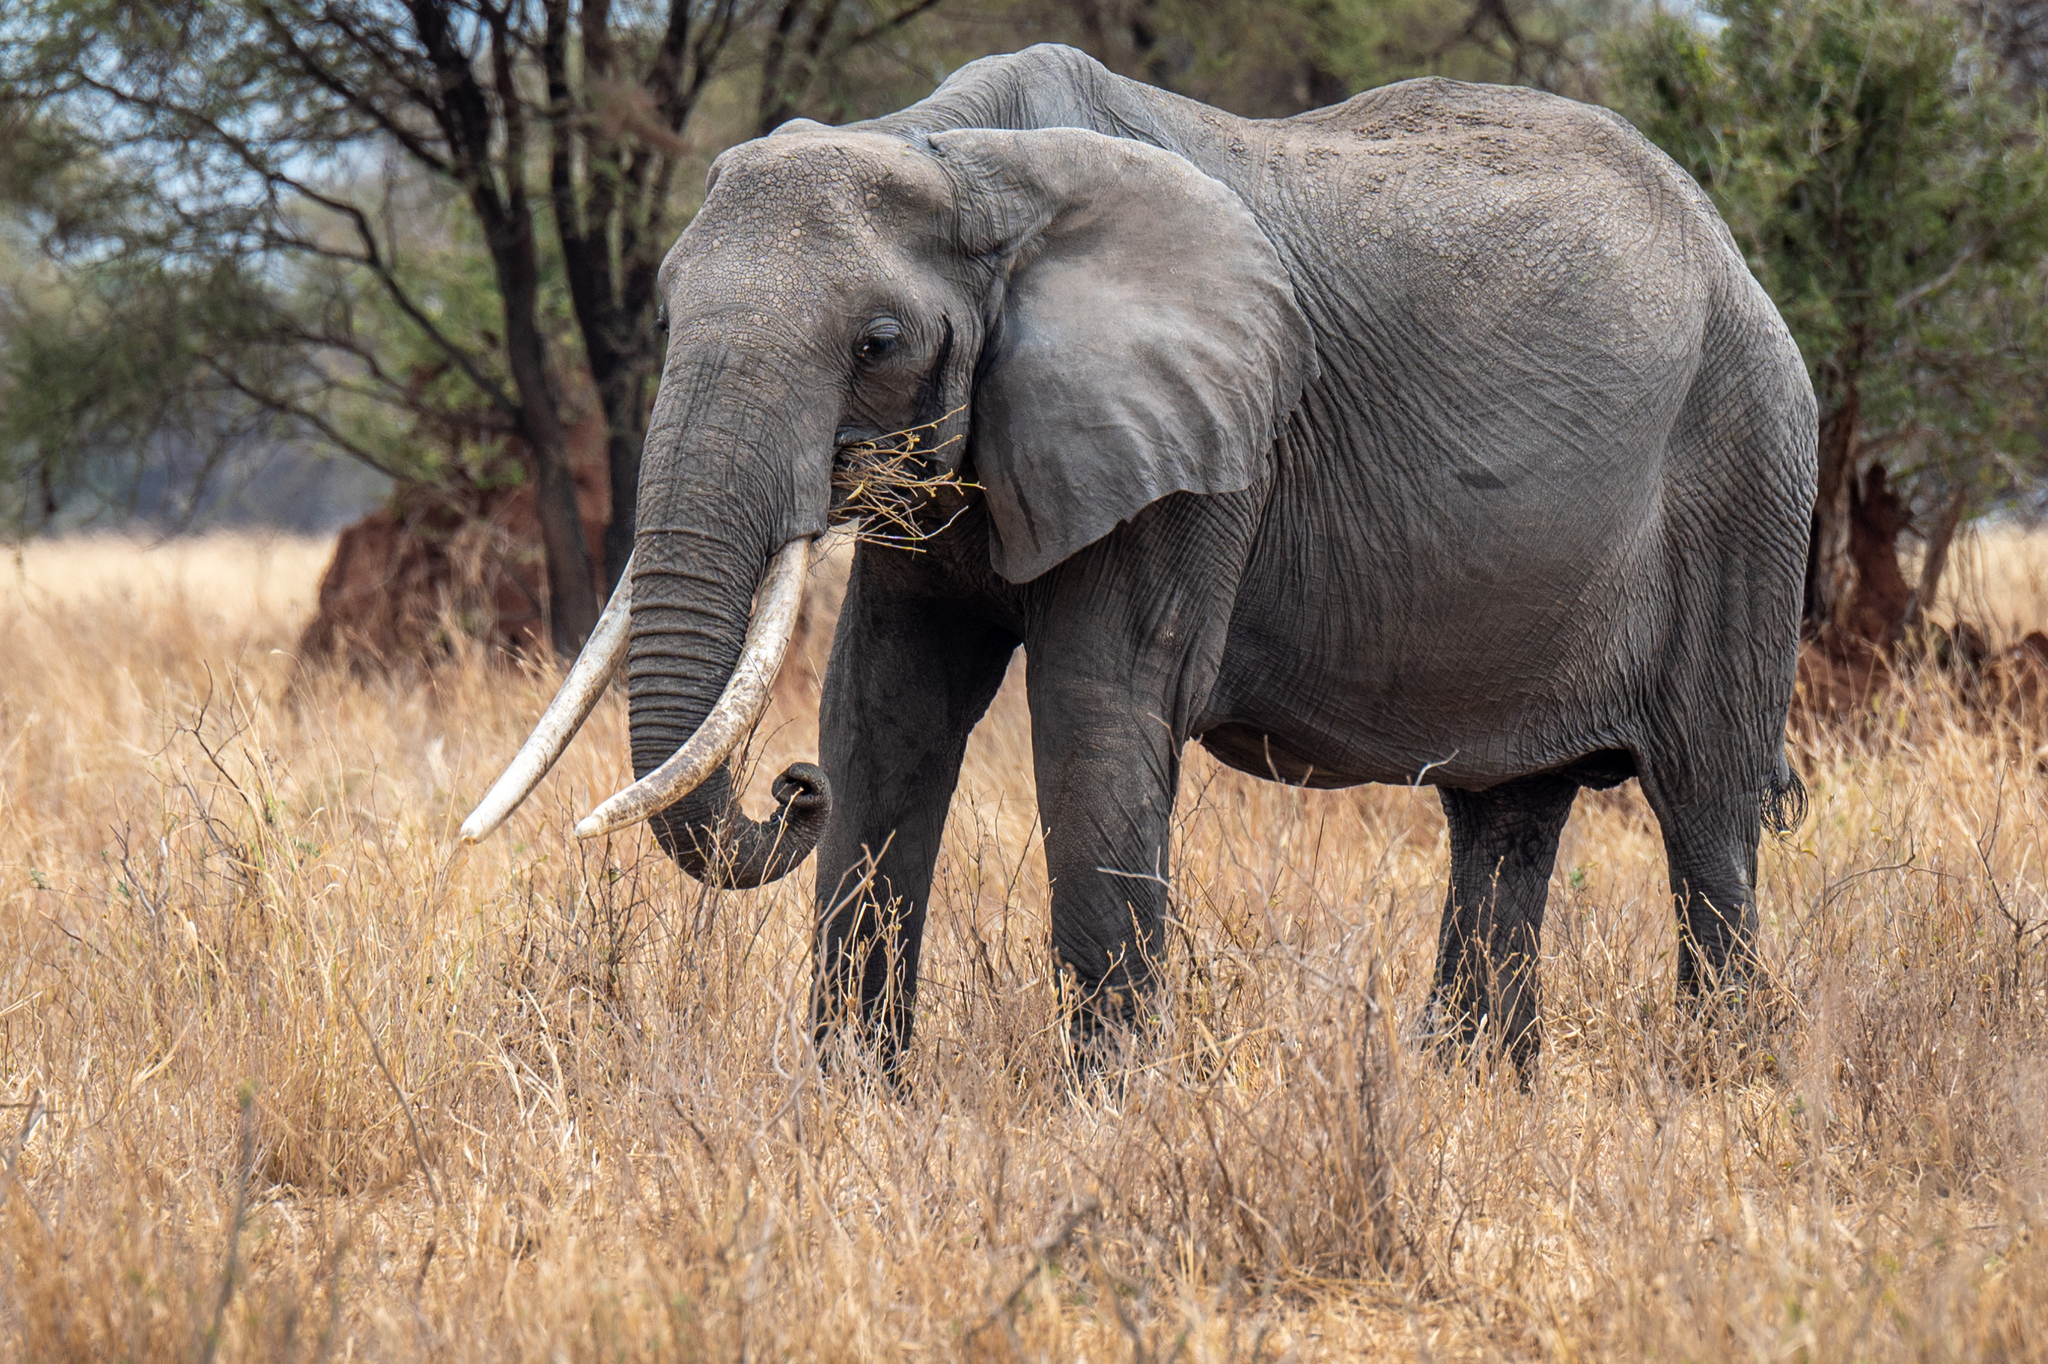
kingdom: Animalia
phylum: Chordata
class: Mammalia
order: Proboscidea
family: Elephantidae
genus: Loxodonta
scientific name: Loxodonta africana
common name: African elephant
